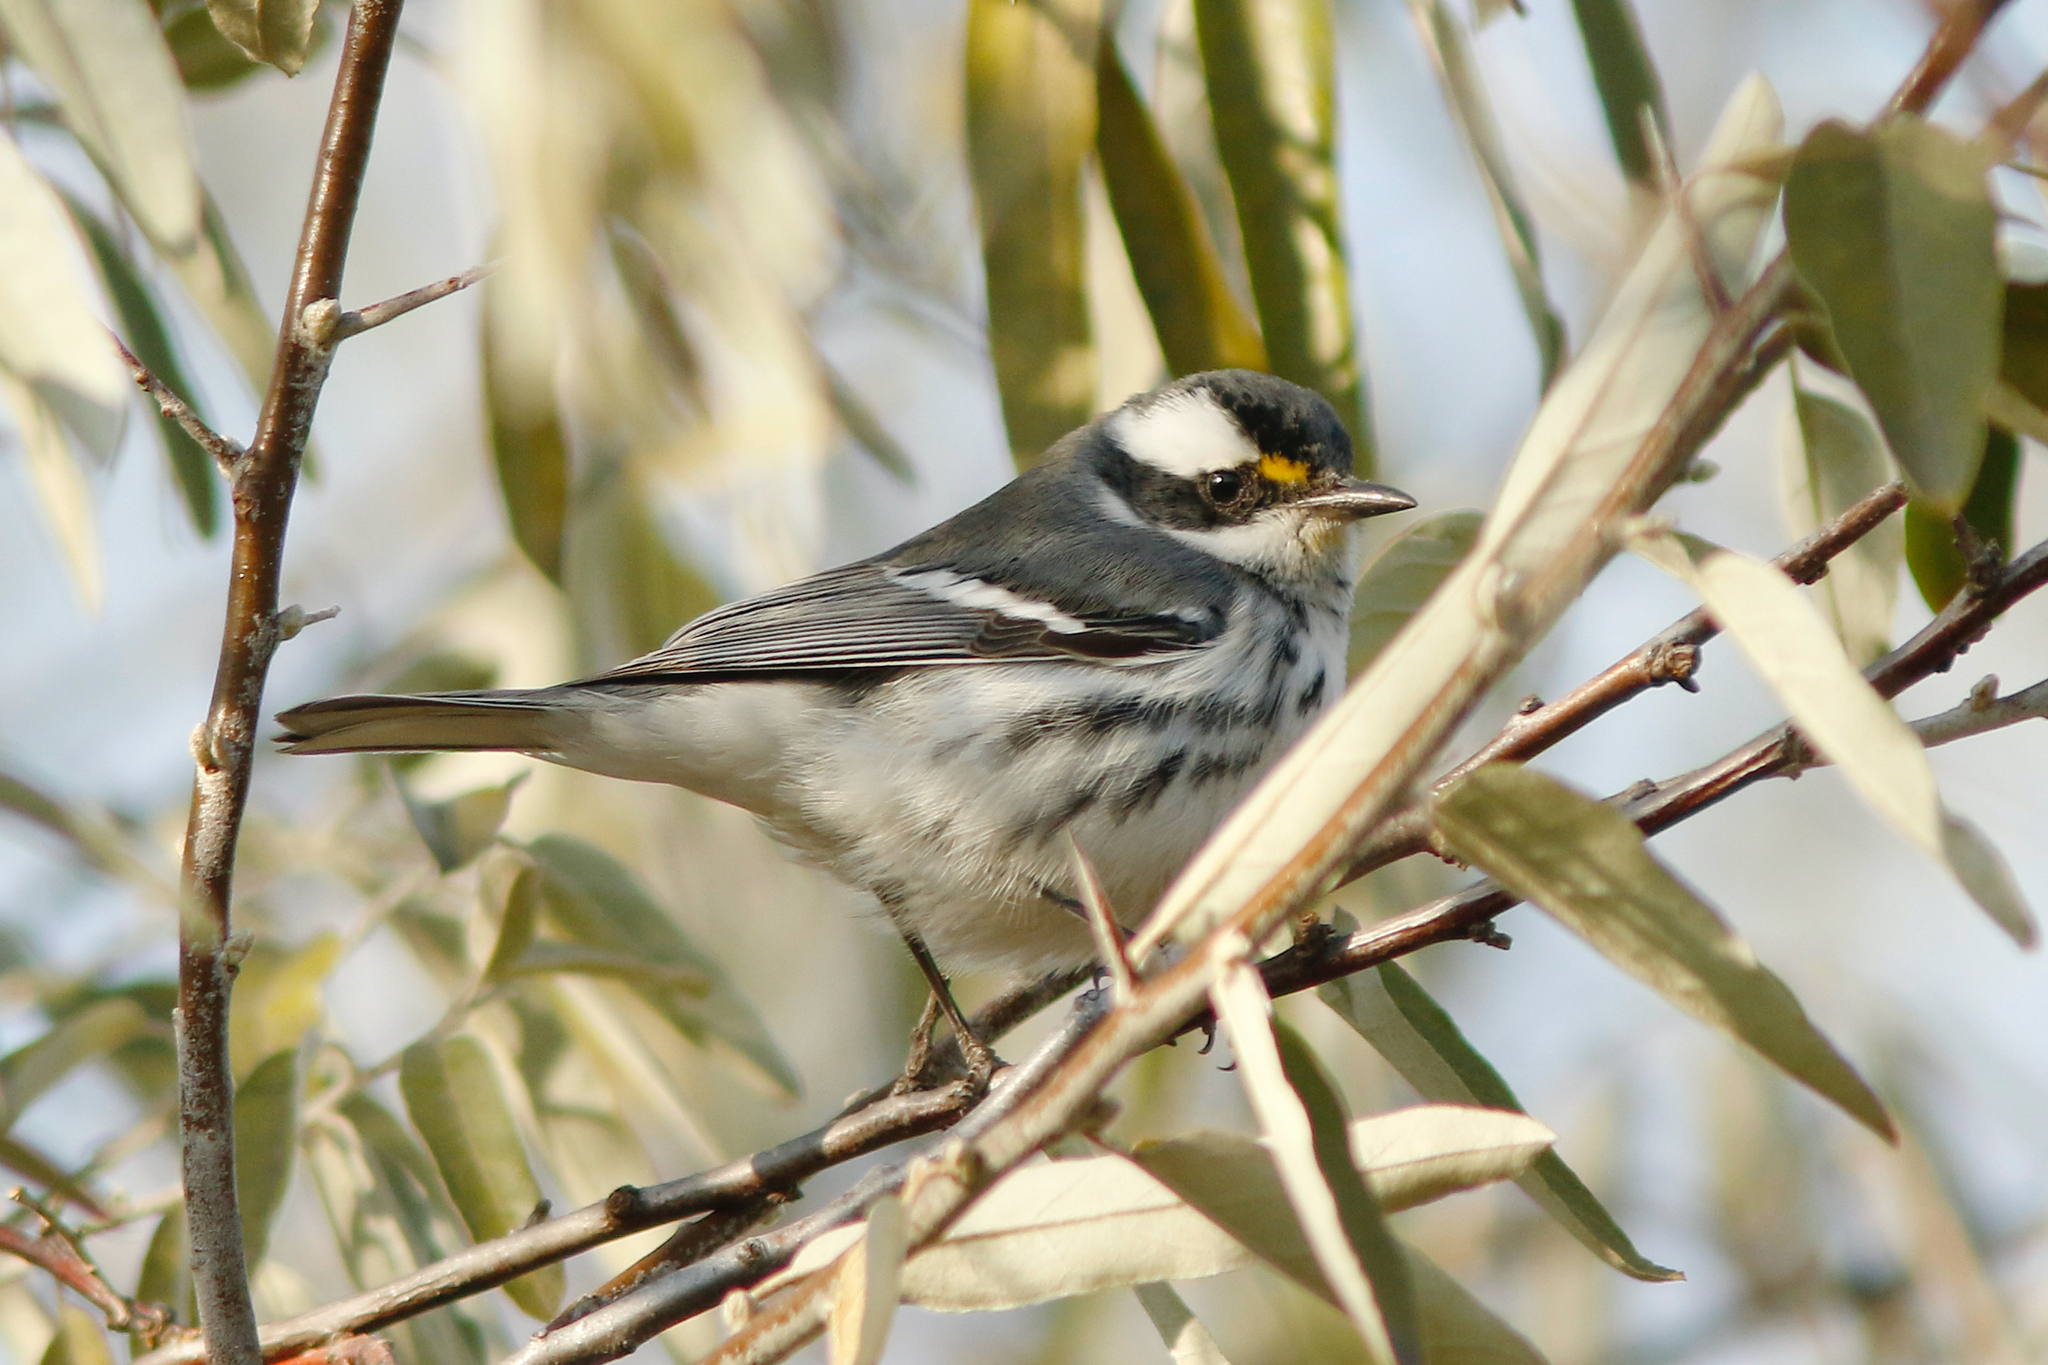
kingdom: Animalia
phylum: Chordata
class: Aves
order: Passeriformes
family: Parulidae
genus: Setophaga
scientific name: Setophaga nigrescens
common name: Black-throated gray warbler
